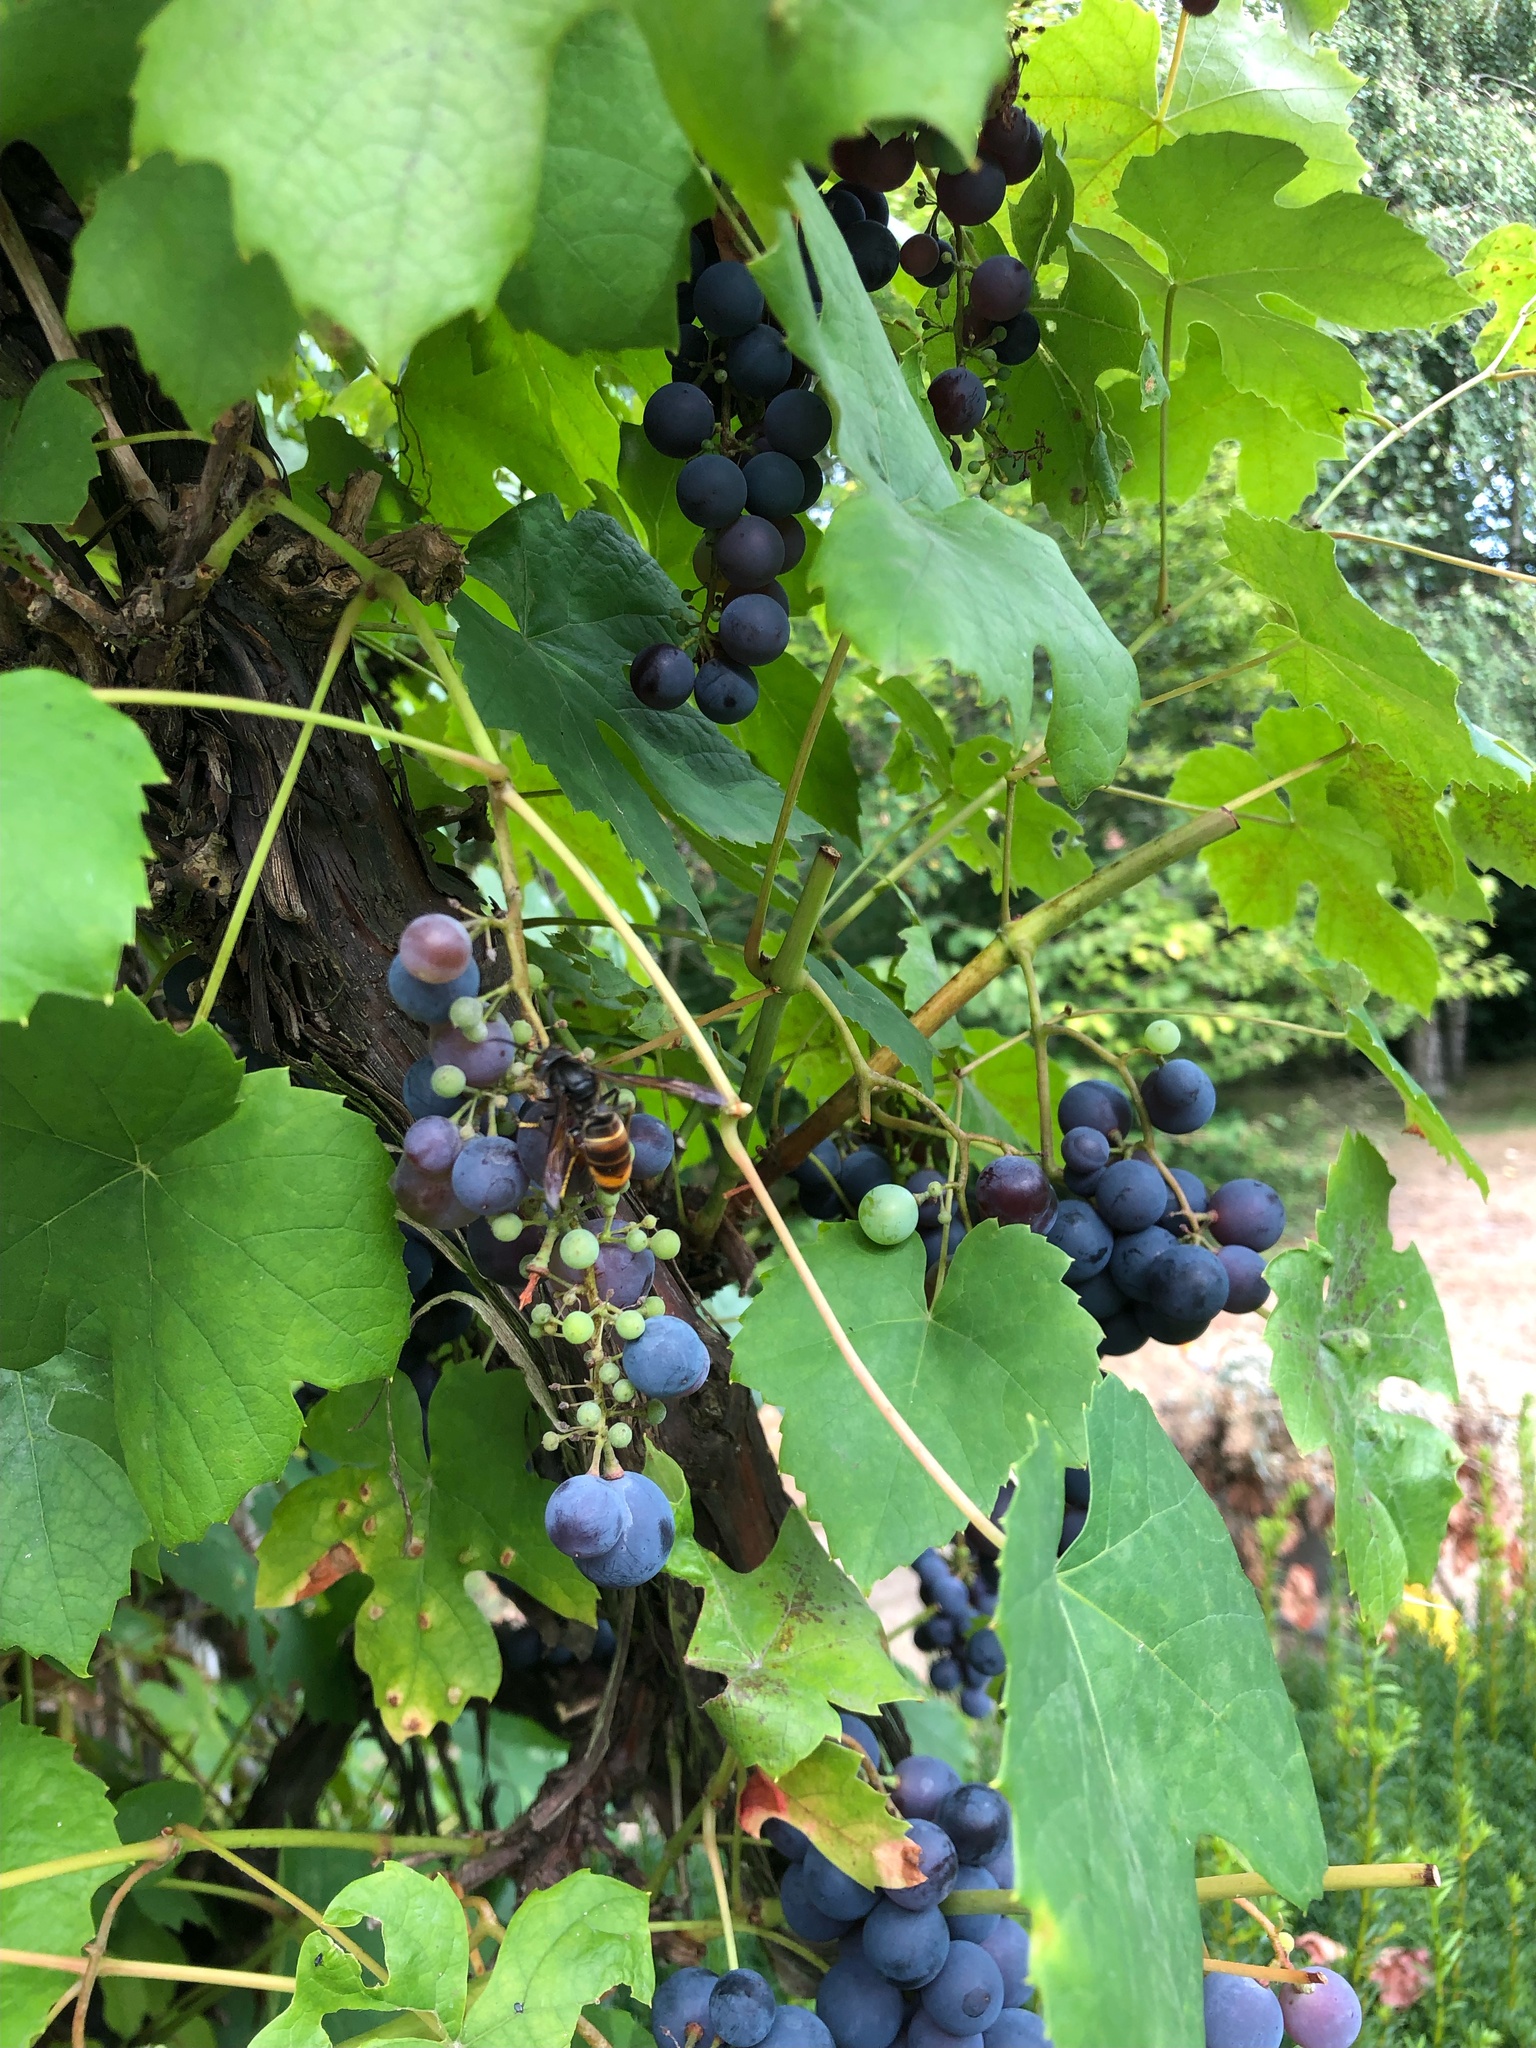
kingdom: Animalia
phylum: Arthropoda
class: Insecta
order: Hymenoptera
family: Vespidae
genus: Vespa
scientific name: Vespa velutina
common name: Asian hornet
